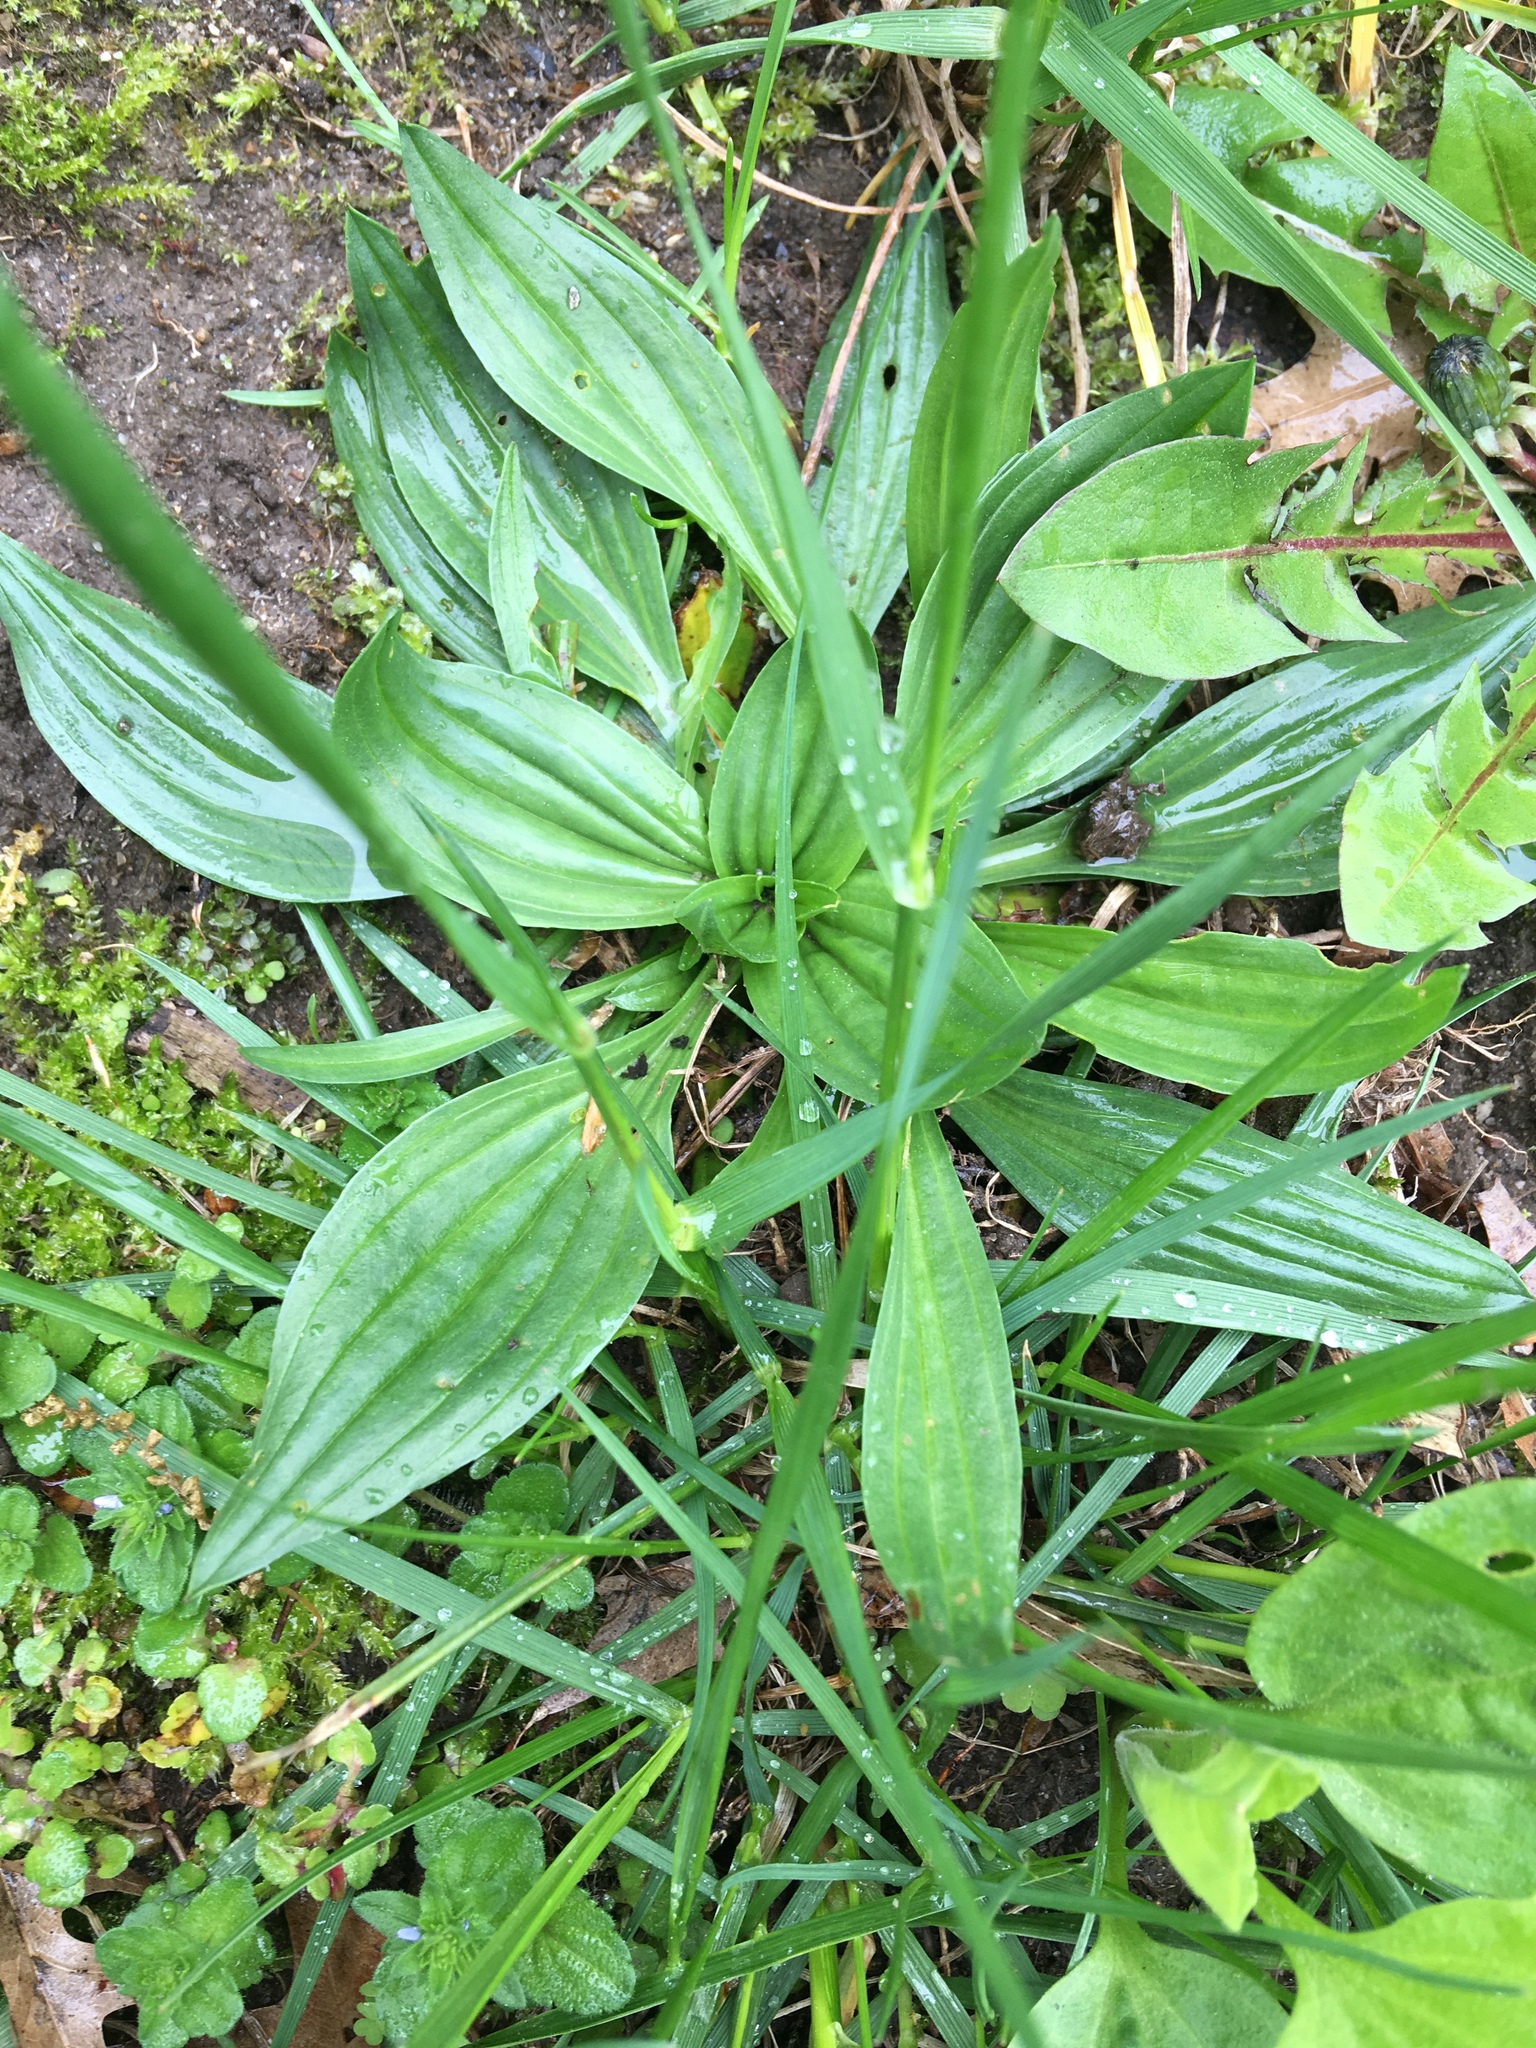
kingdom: Plantae
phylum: Tracheophyta
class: Magnoliopsida
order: Lamiales
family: Plantaginaceae
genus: Plantago
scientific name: Plantago lanceolata
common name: Ribwort plantain
